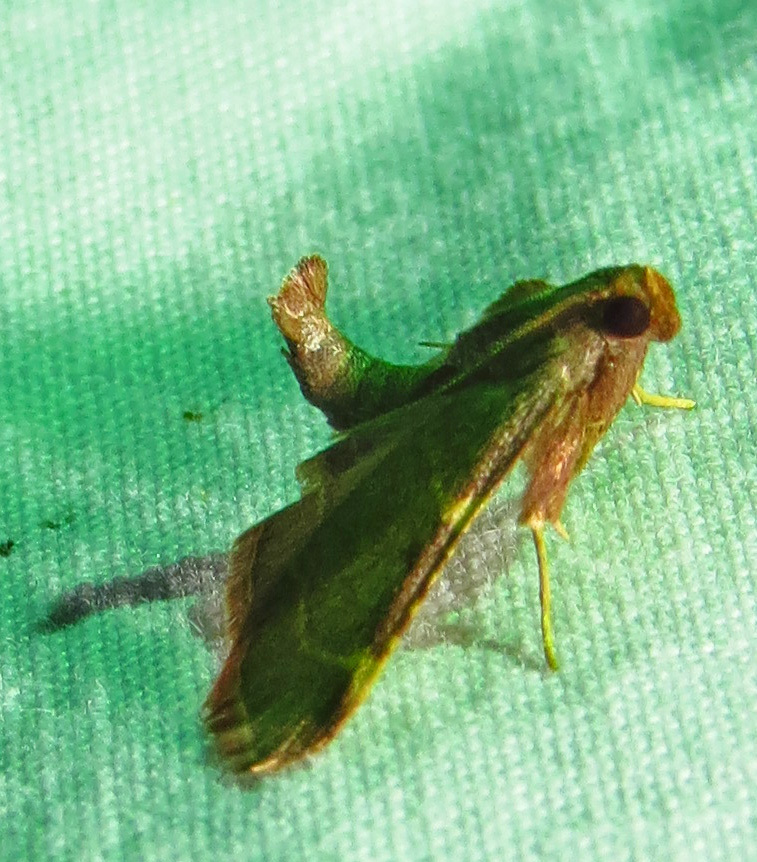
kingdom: Animalia
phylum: Arthropoda
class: Insecta
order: Lepidoptera
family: Pyralidae
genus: Hypsopygia
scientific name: Hypsopygia binodulalis
